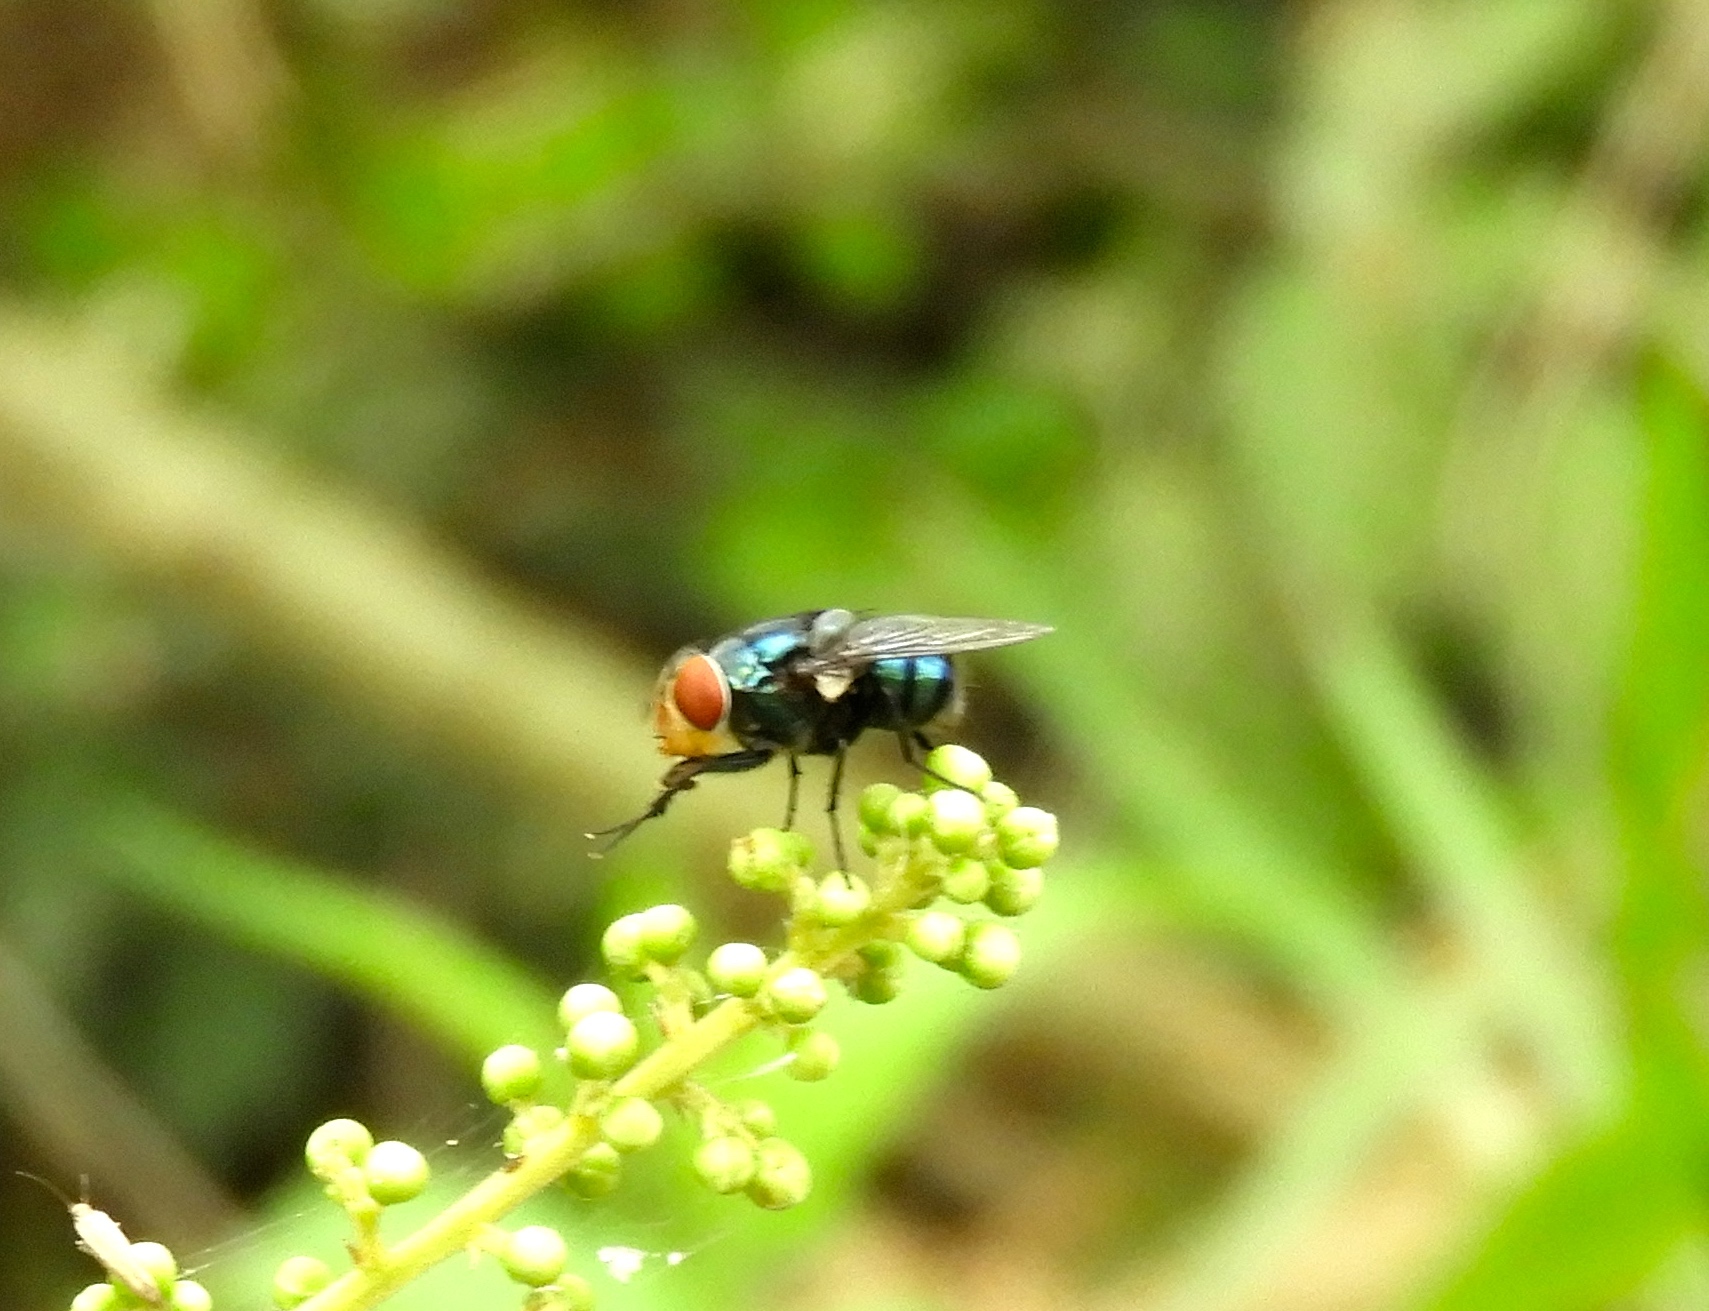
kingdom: Animalia
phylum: Arthropoda
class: Insecta
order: Diptera
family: Calliphoridae
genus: Chrysomya
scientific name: Chrysomya megacephala
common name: Blow fly
